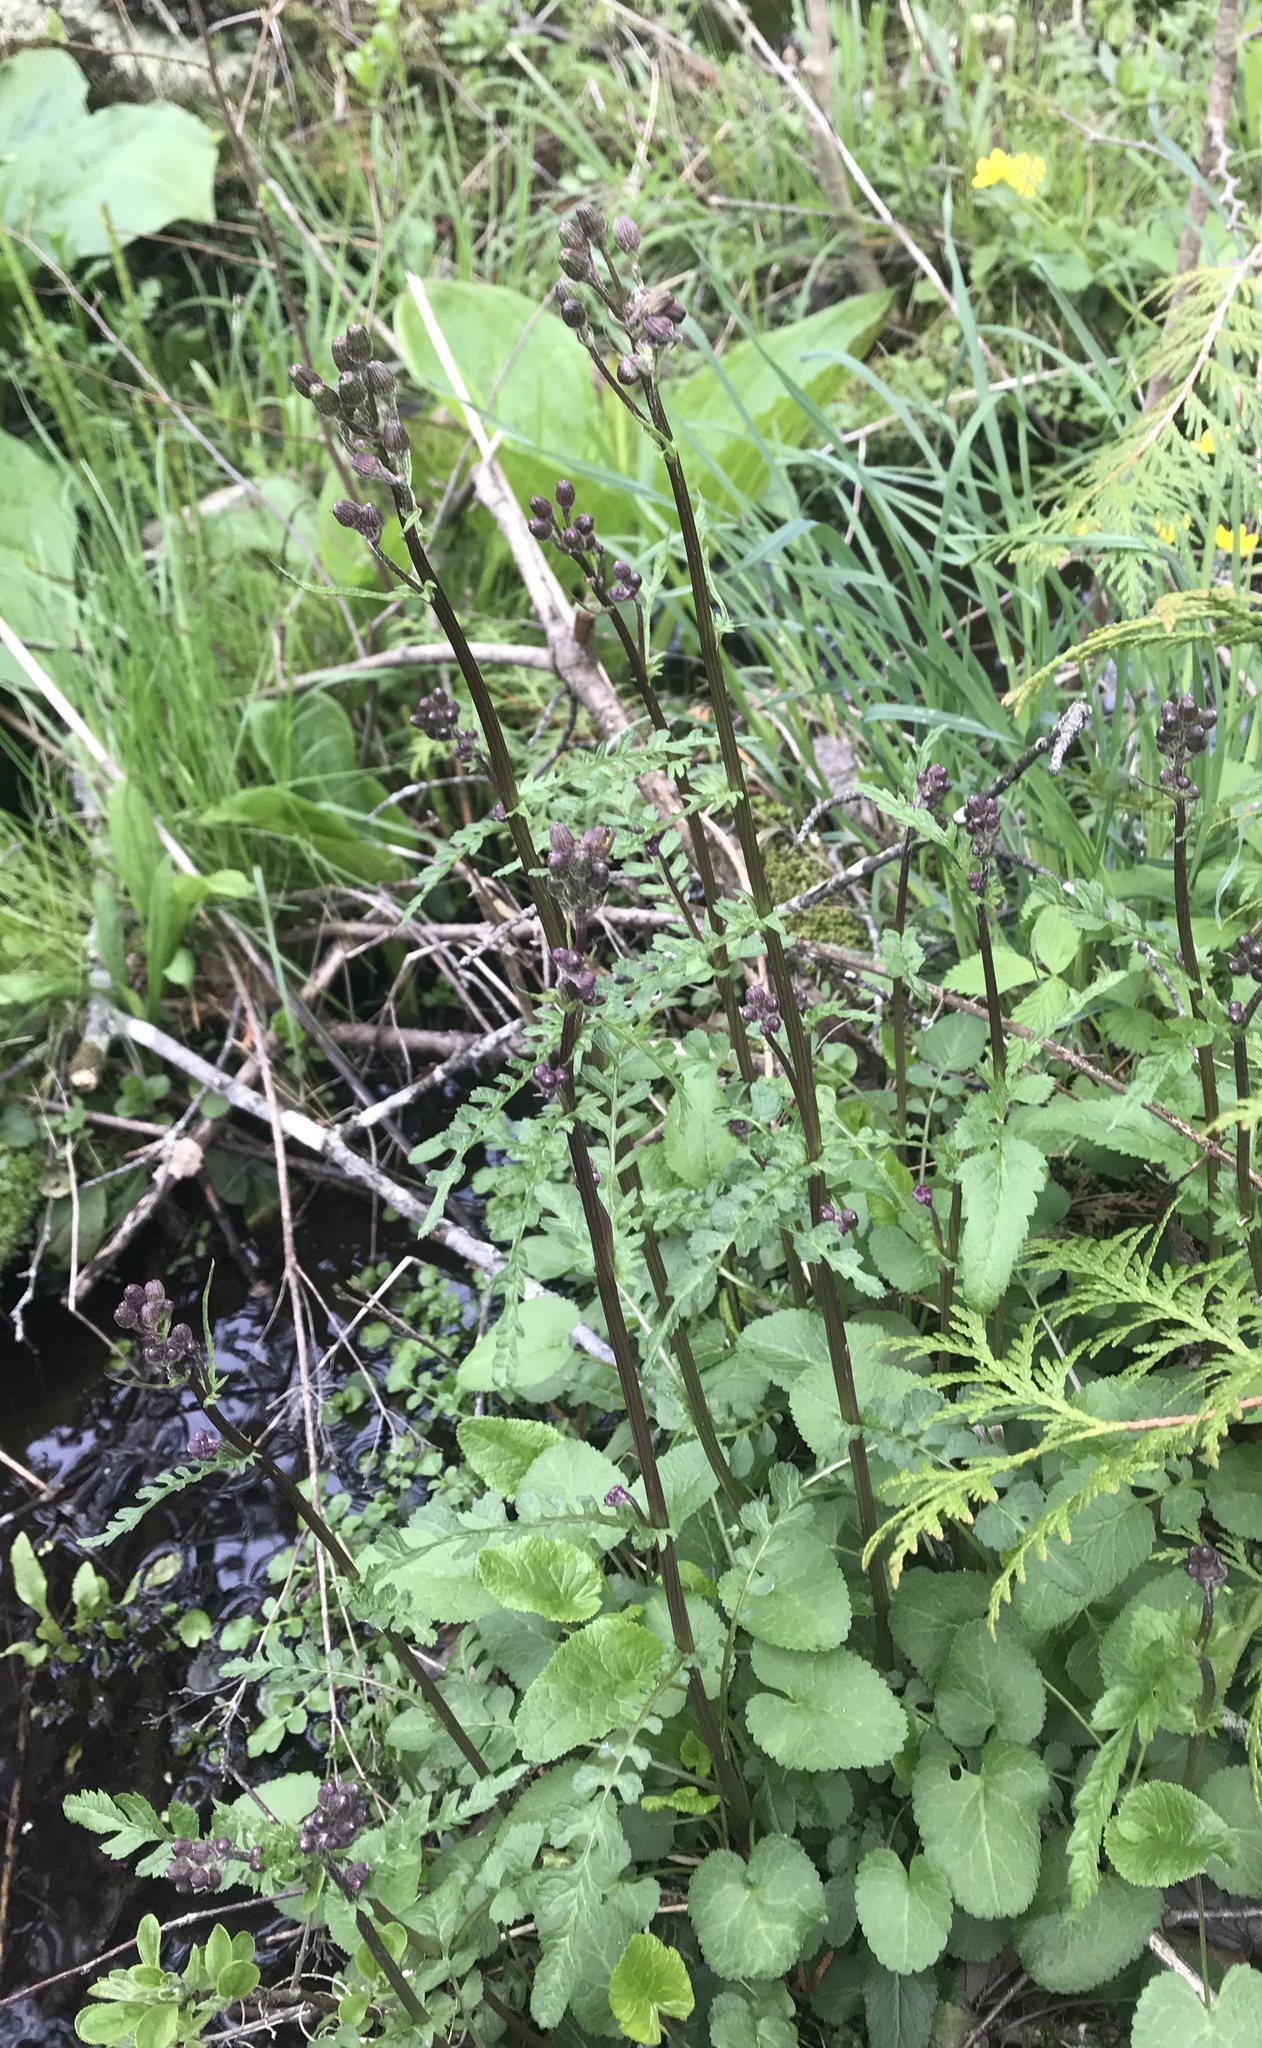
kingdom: Plantae
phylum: Tracheophyta
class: Magnoliopsida
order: Asterales
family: Asteraceae
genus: Packera
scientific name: Packera aurea
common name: Golden groundsel
